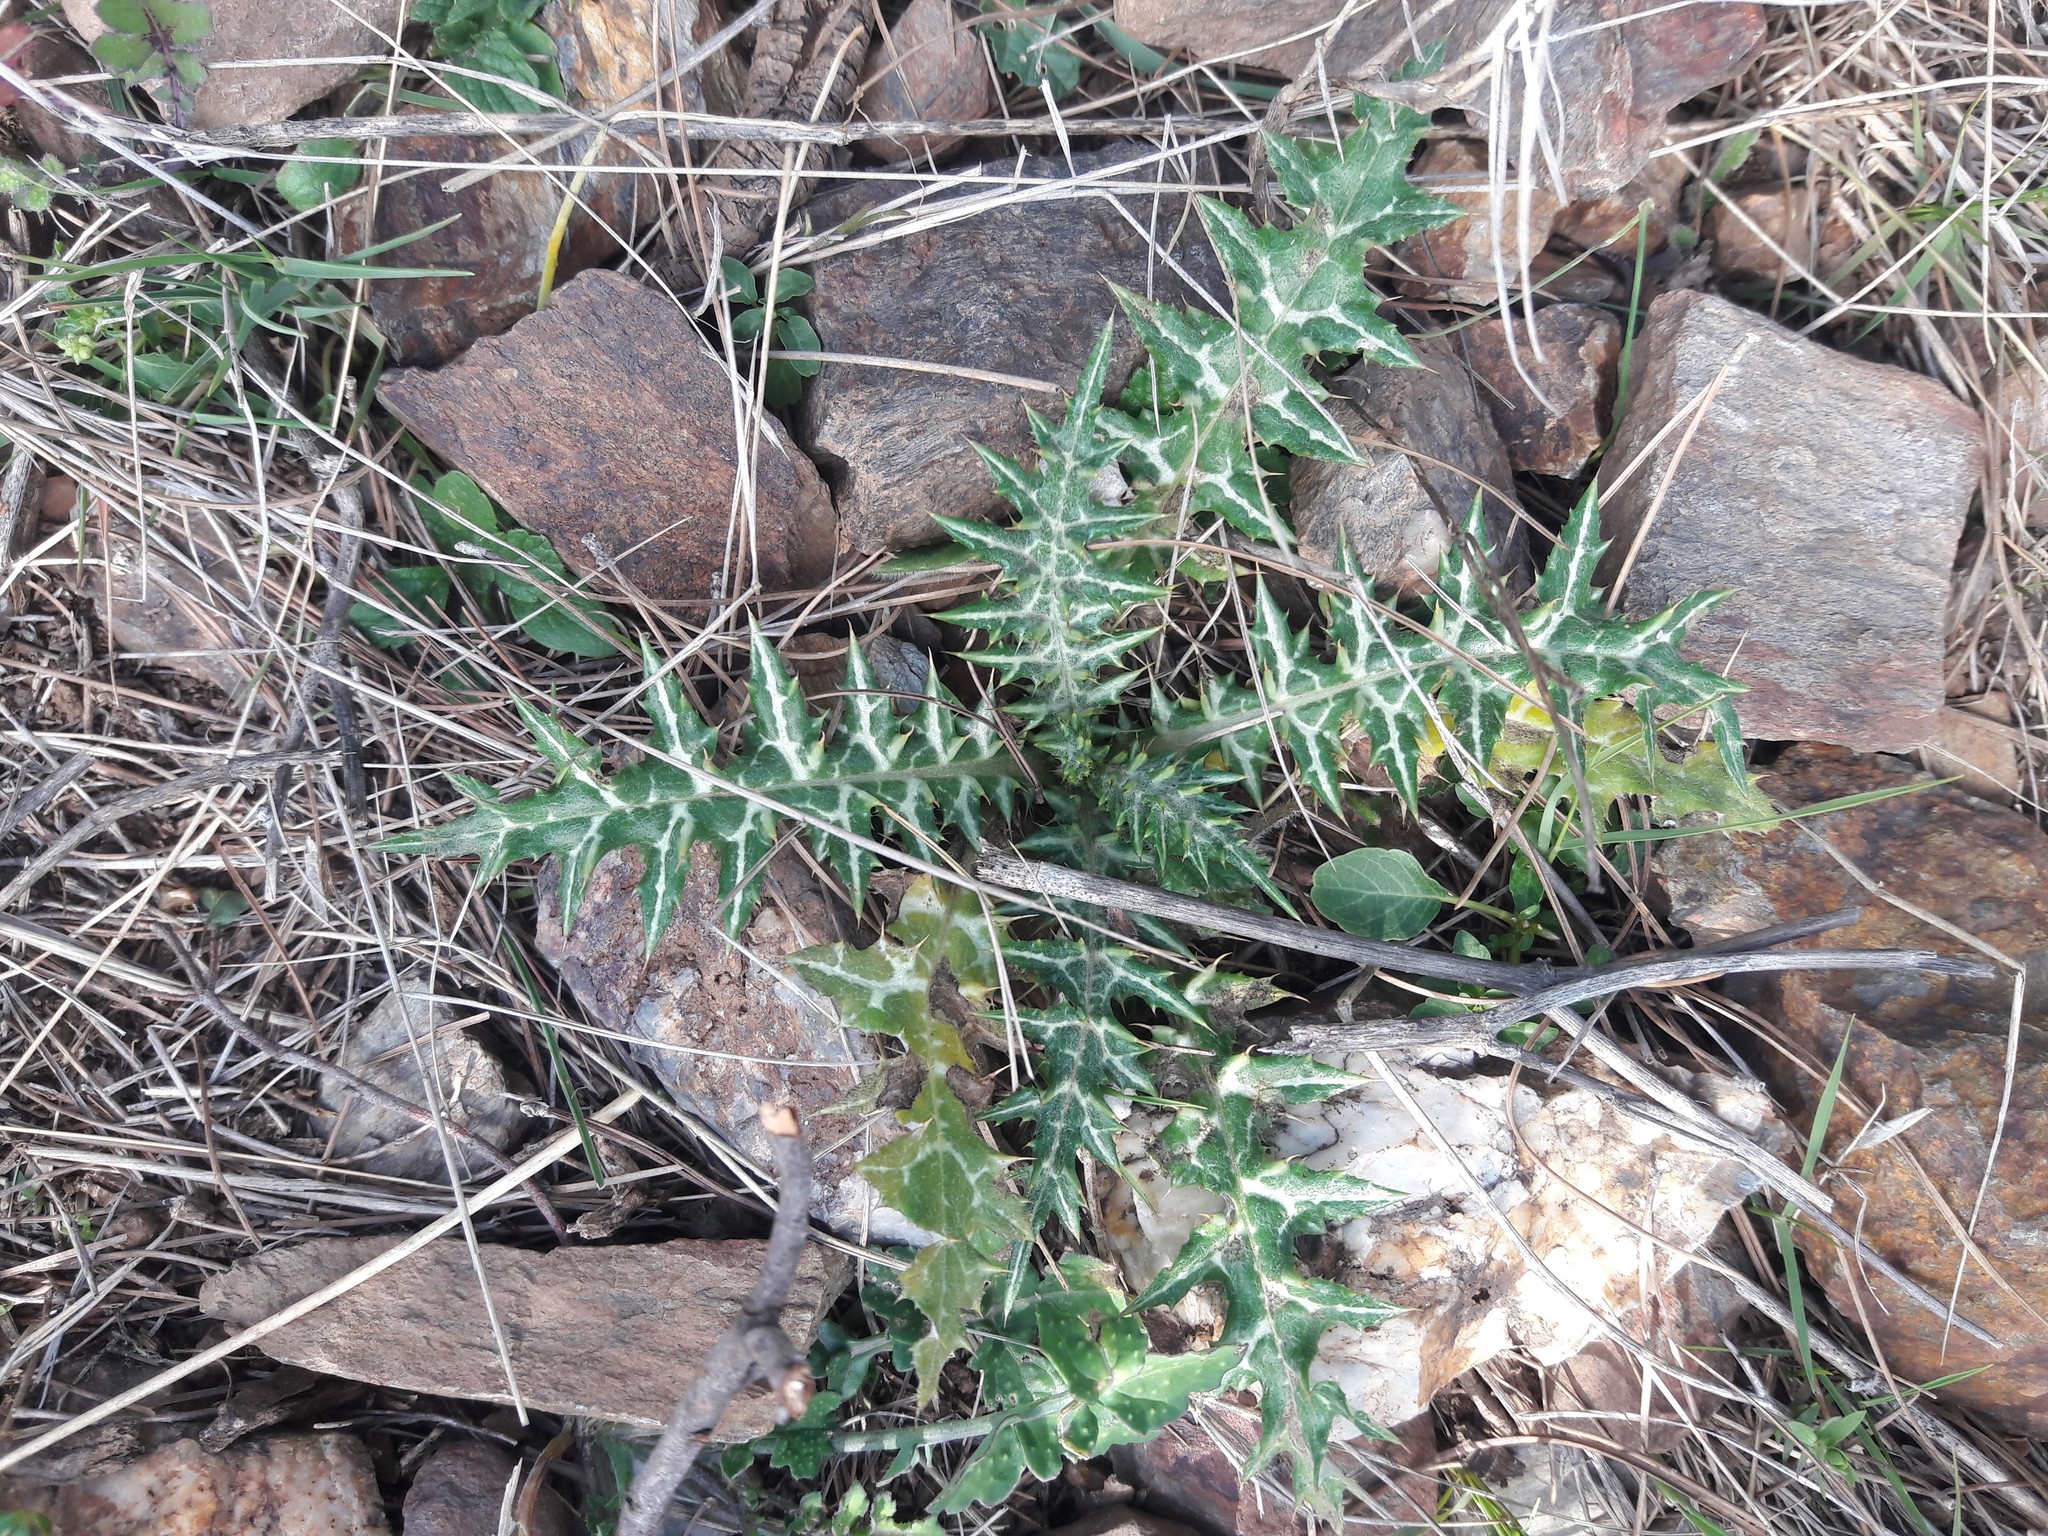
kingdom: Plantae
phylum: Tracheophyta
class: Magnoliopsida
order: Asterales
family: Asteraceae
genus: Galactites
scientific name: Galactites tomentosa
